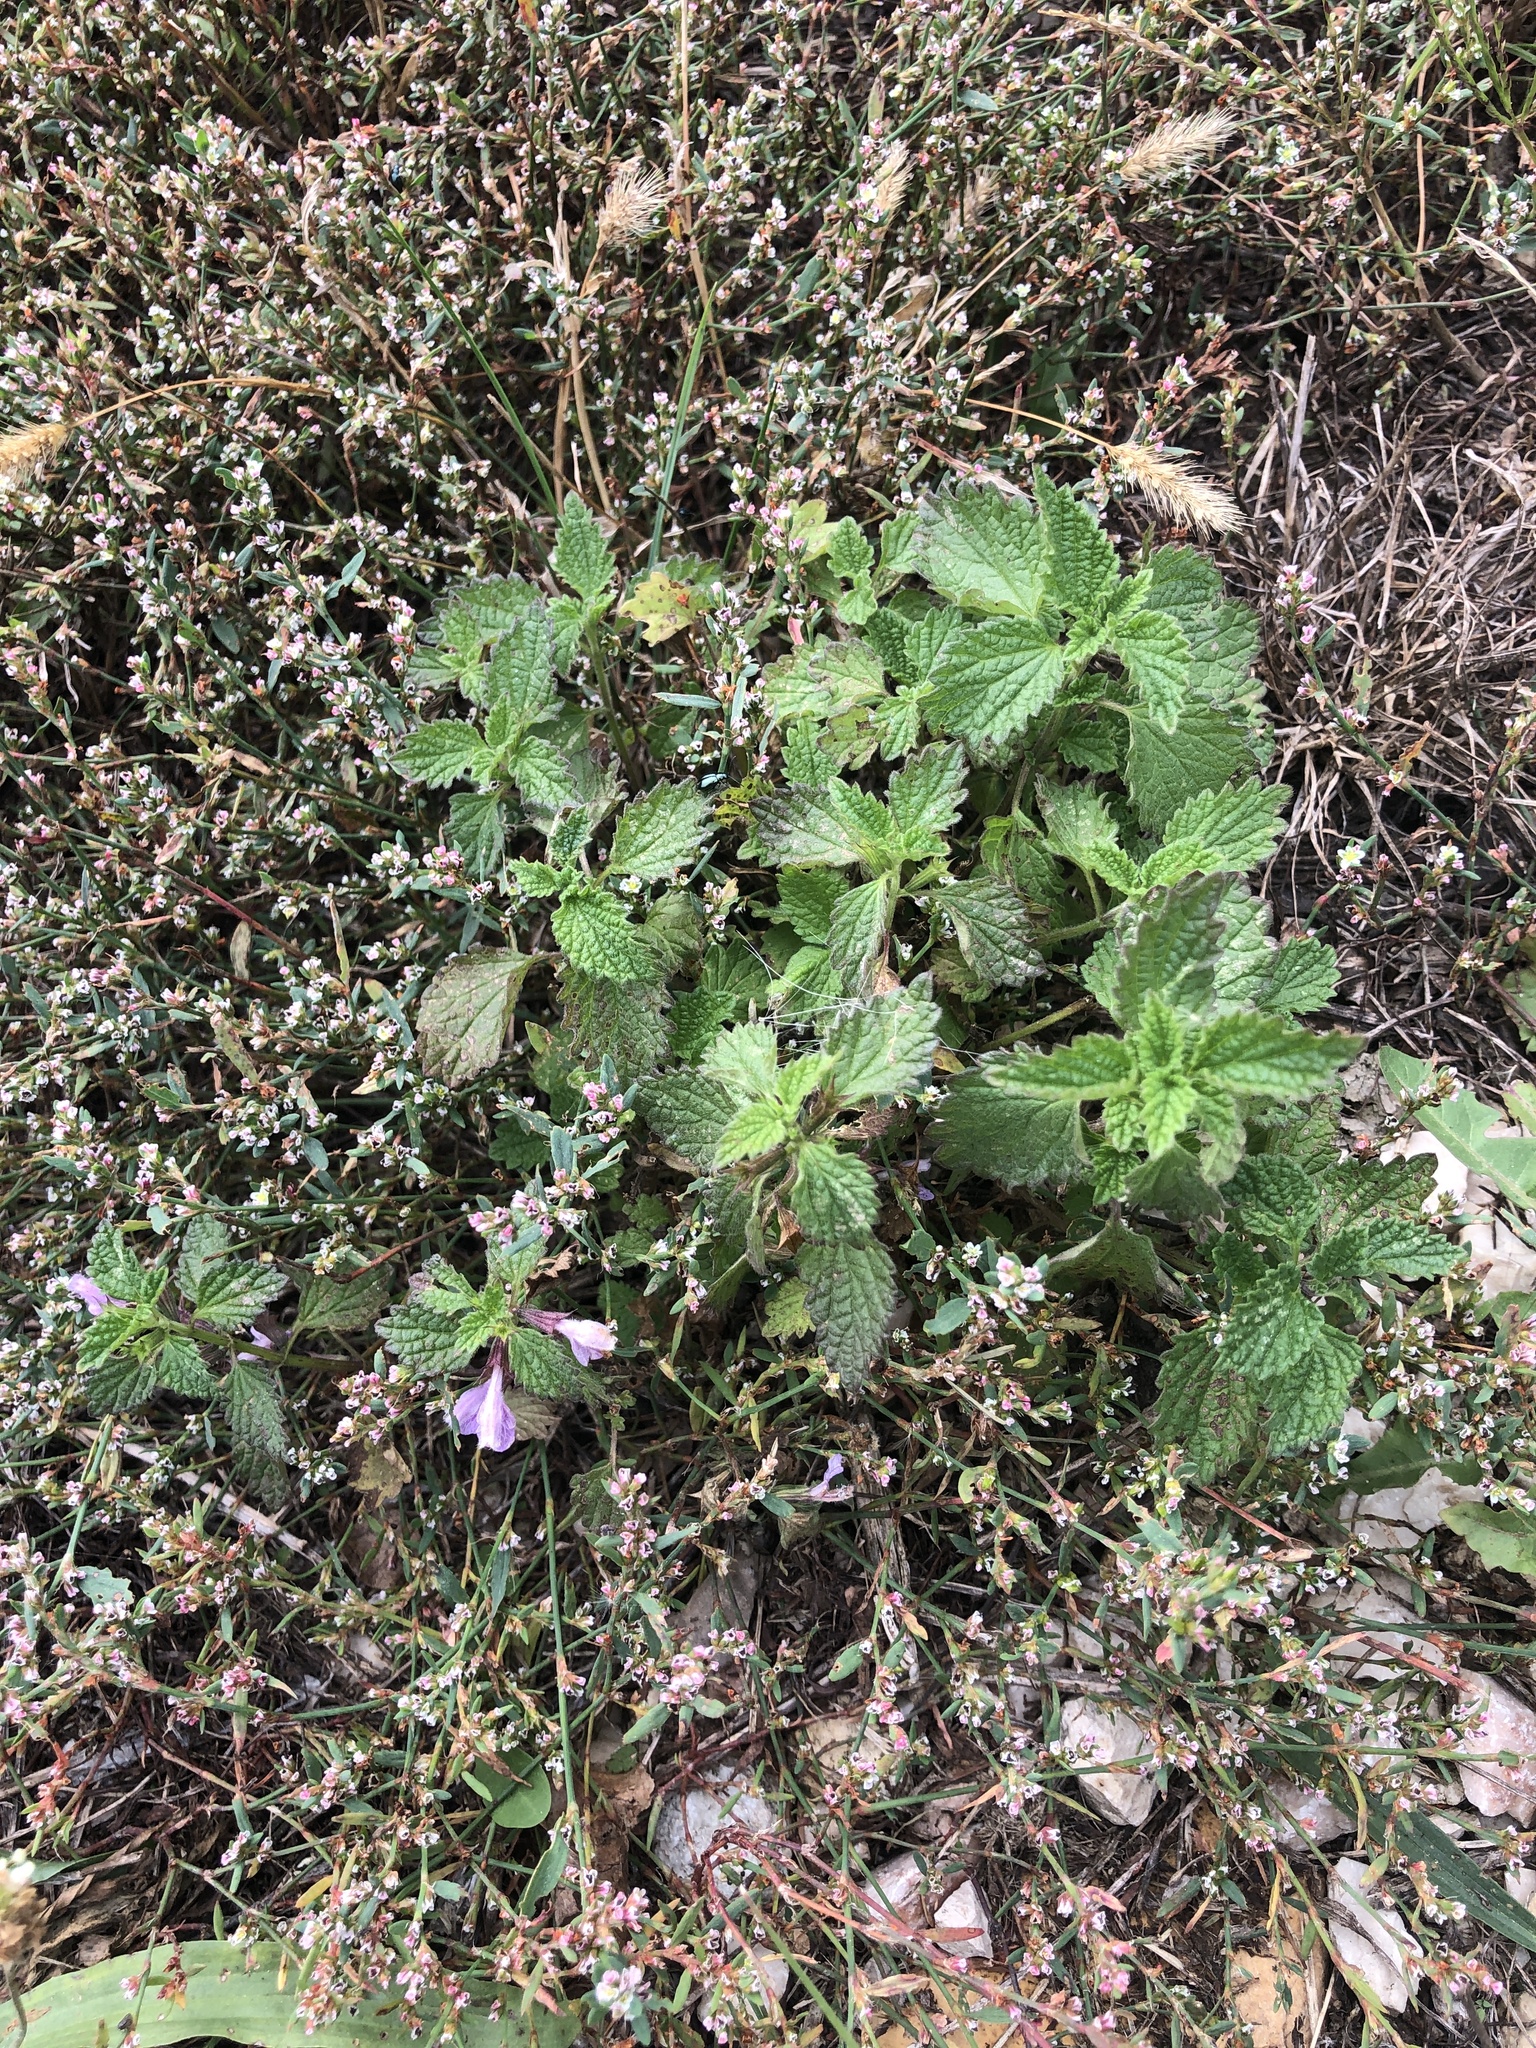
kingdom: Plantae
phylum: Tracheophyta
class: Magnoliopsida
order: Lamiales
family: Lamiaceae
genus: Ballota
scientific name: Ballota nigra
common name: Black horehound
